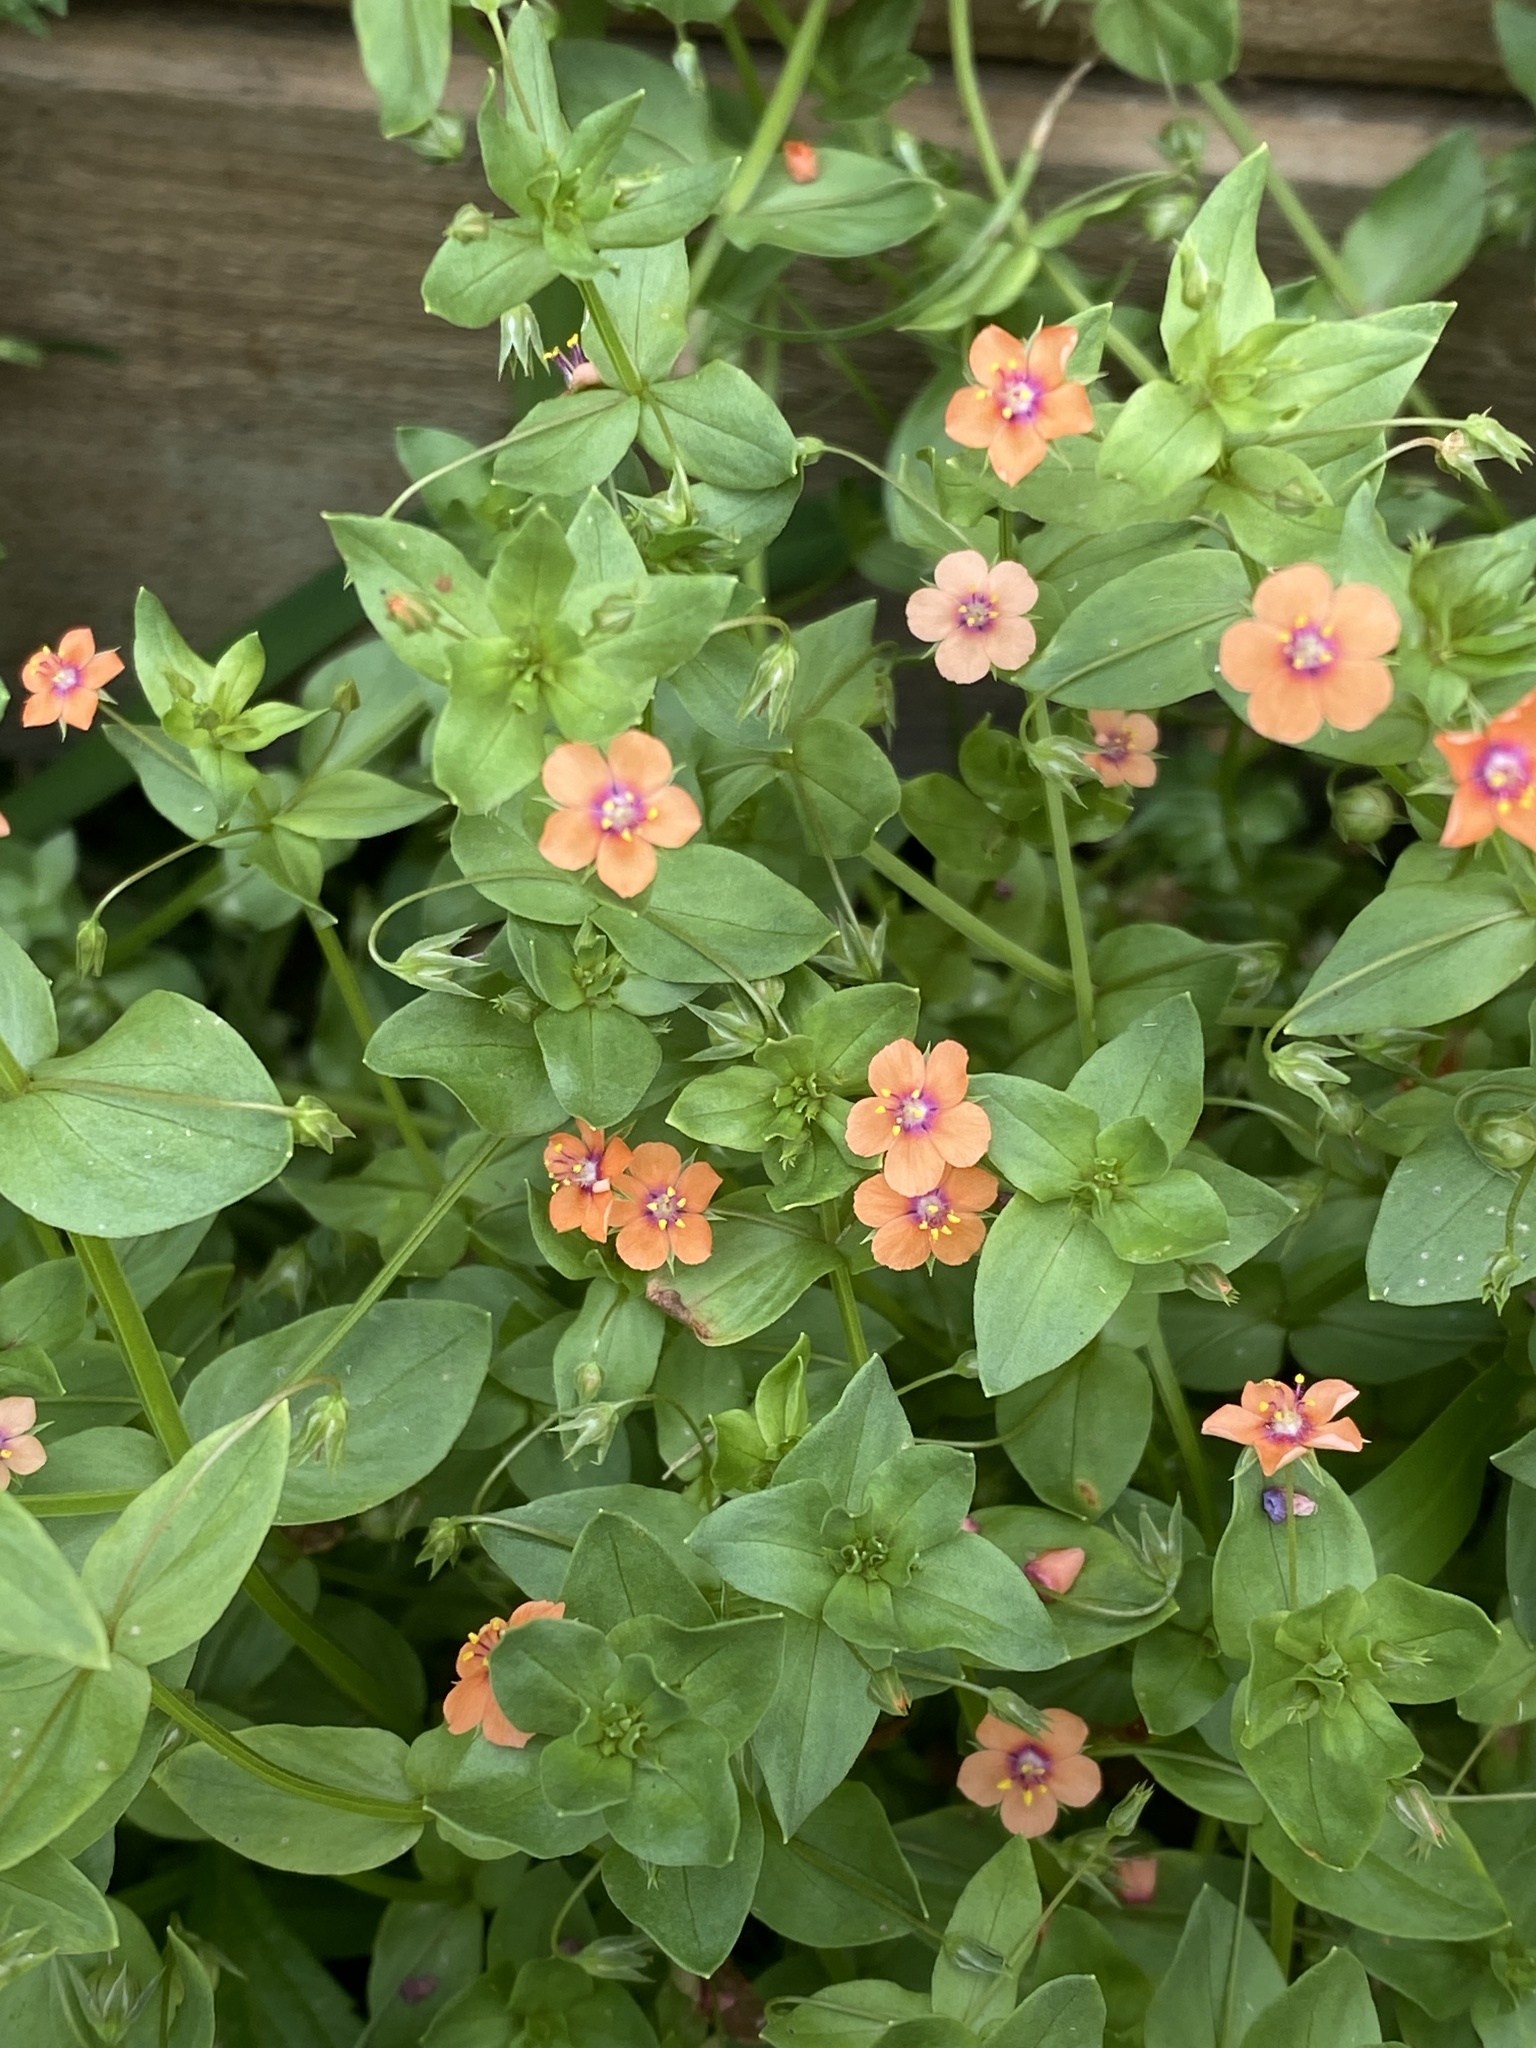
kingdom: Plantae
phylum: Tracheophyta
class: Magnoliopsida
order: Ericales
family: Primulaceae
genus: Lysimachia
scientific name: Lysimachia arvensis
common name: Scarlet pimpernel
